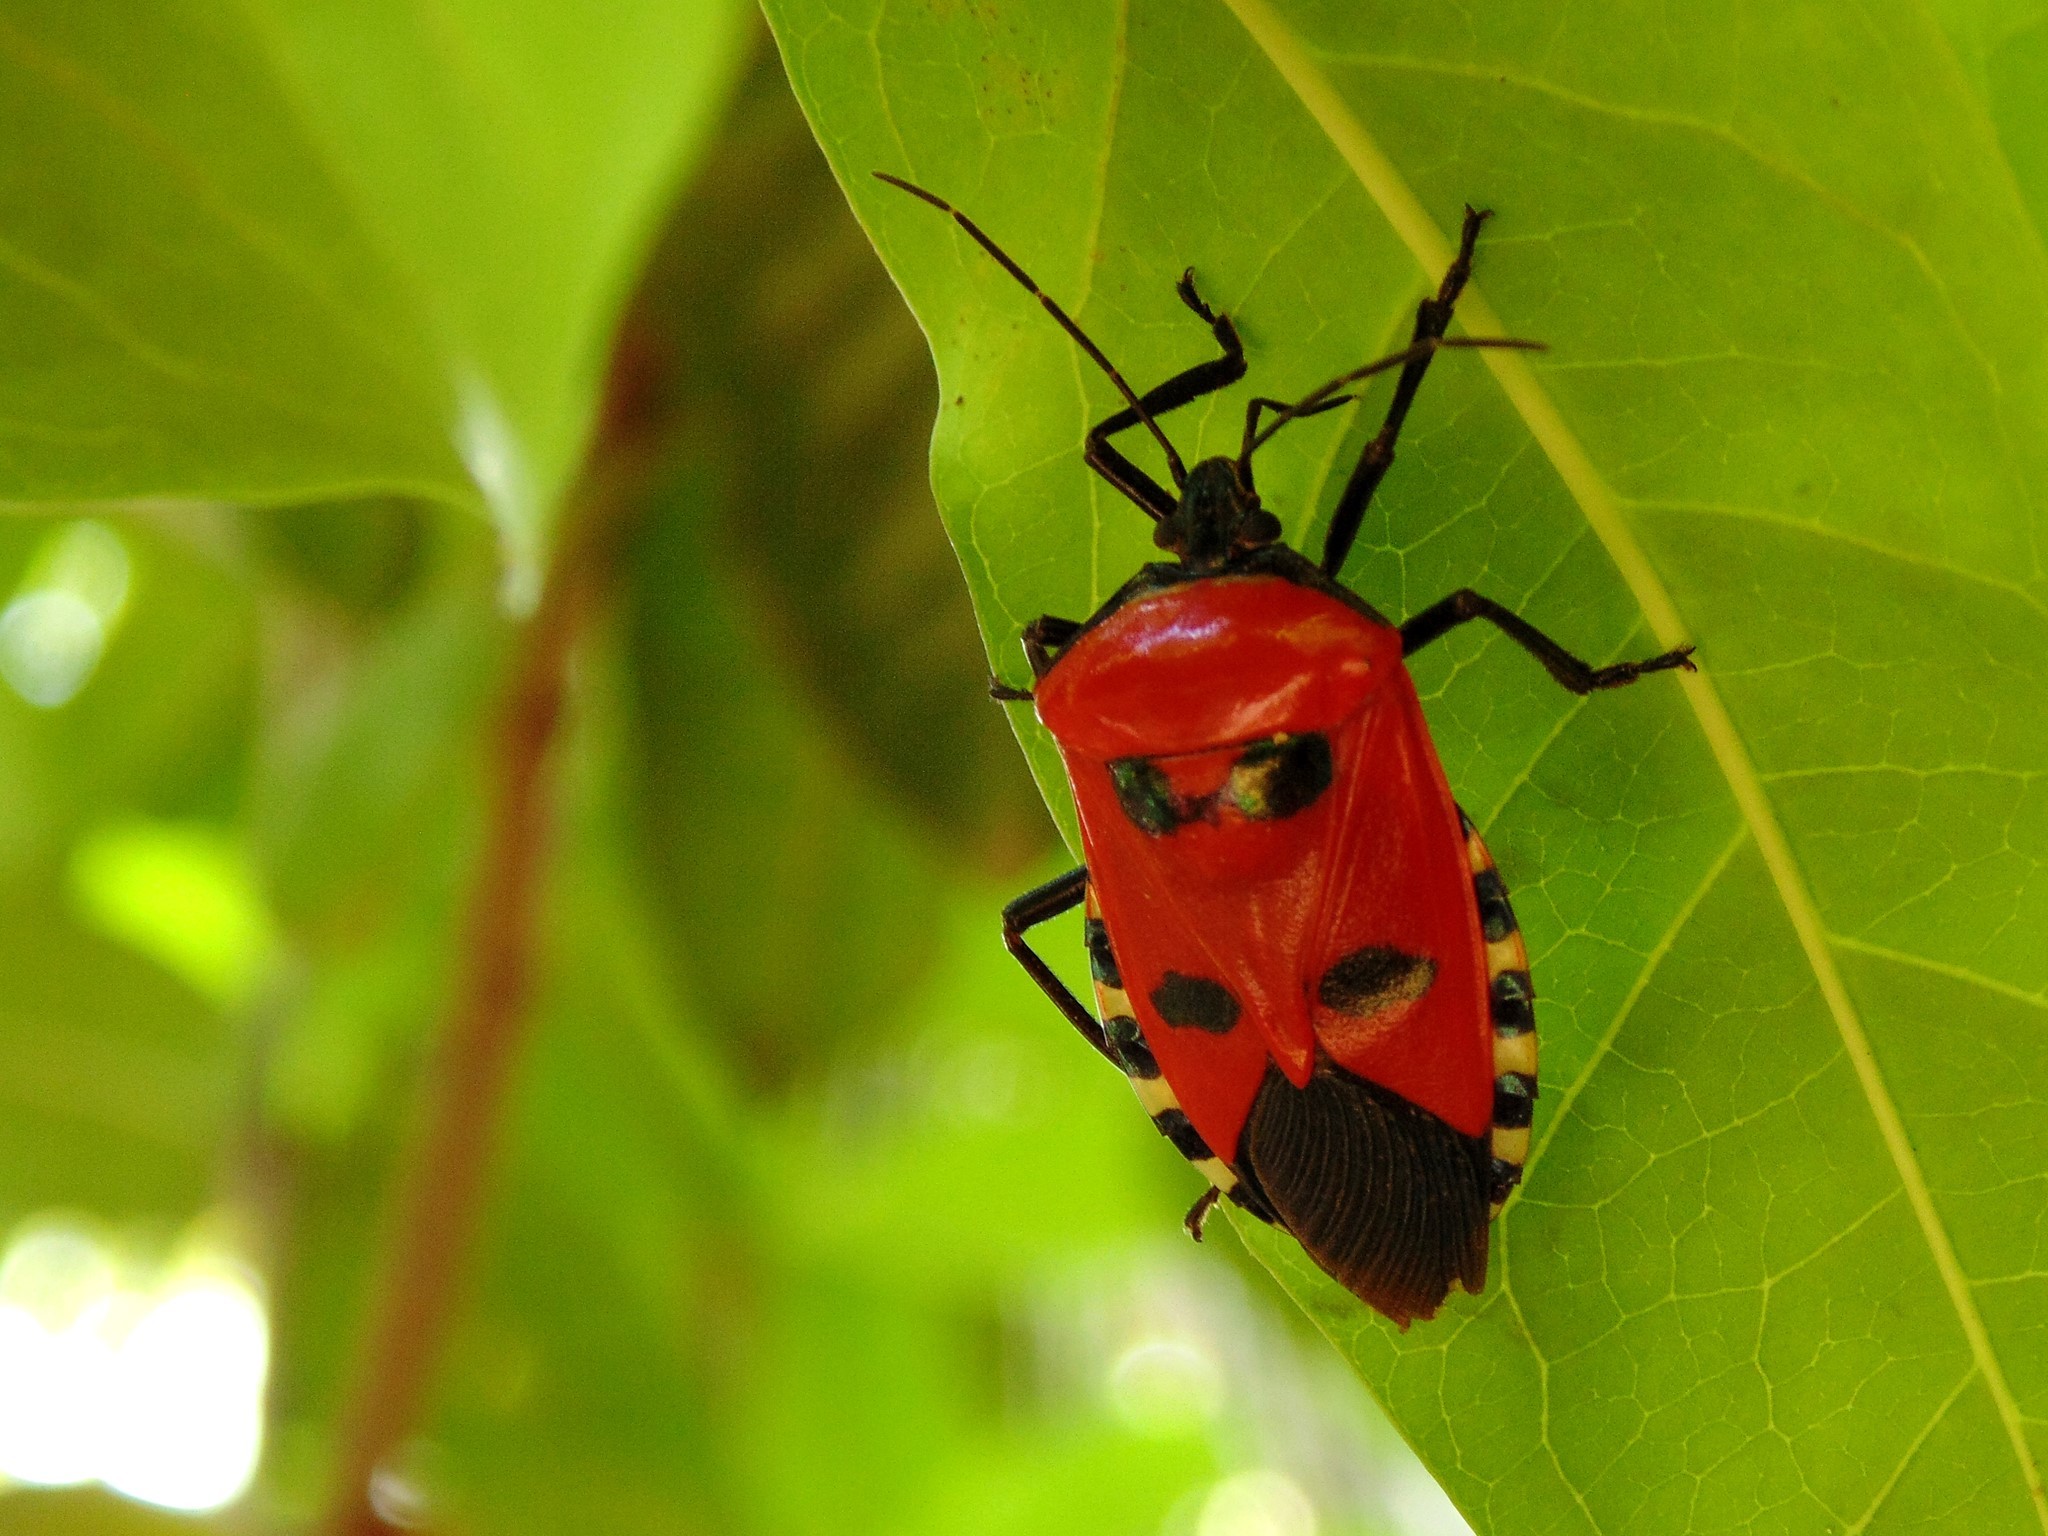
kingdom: Animalia
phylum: Arthropoda
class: Insecta
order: Hemiptera
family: Pentatomidae
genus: Catacanthus
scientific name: Catacanthus incarnatus
